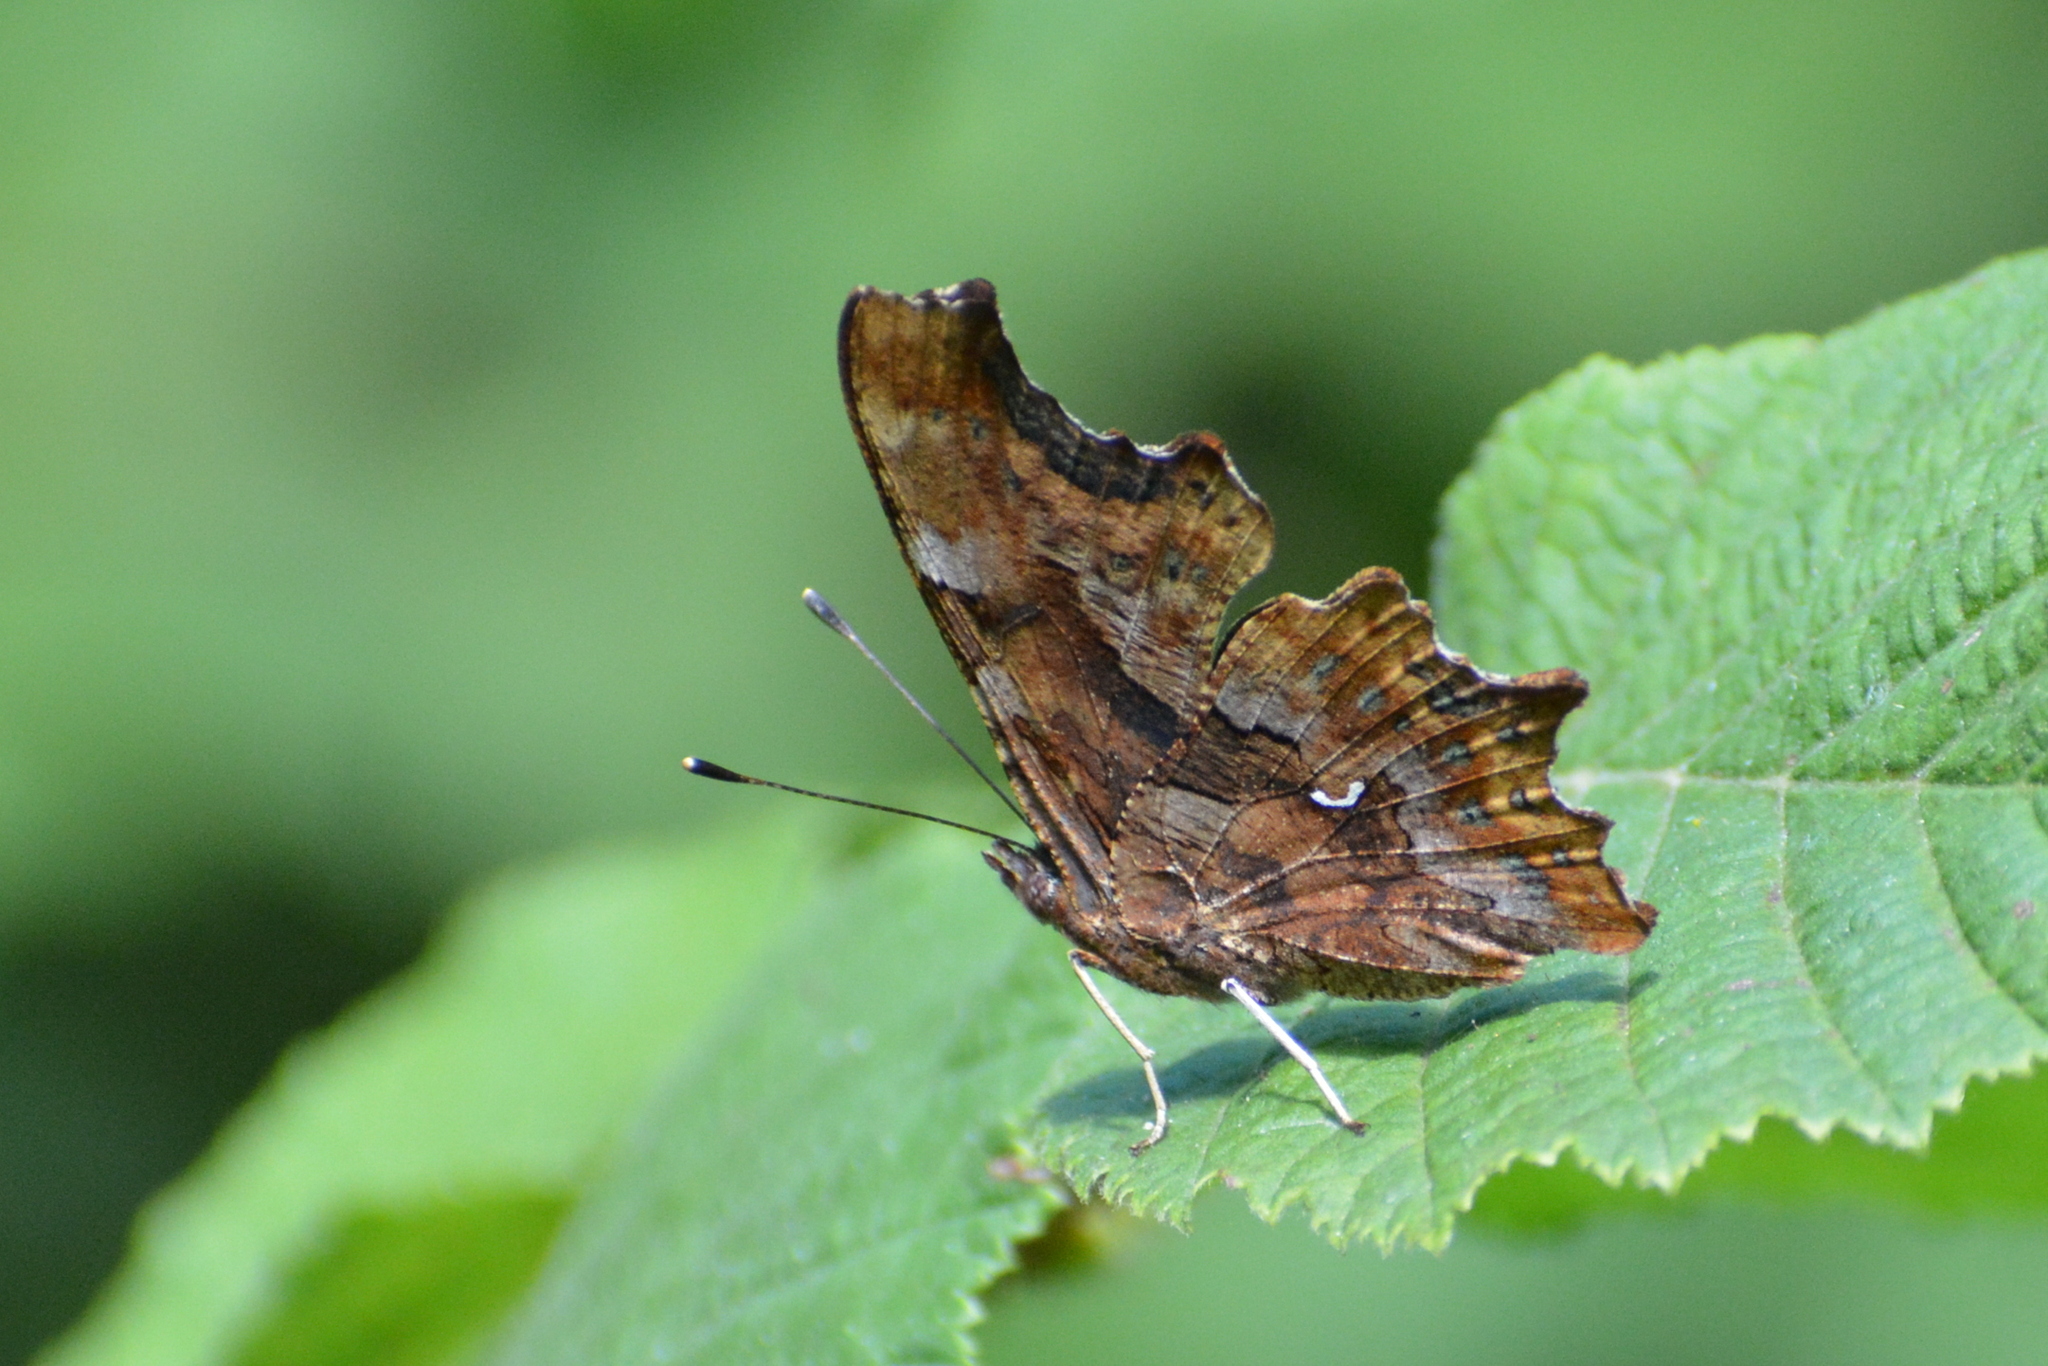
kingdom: Animalia
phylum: Arthropoda
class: Insecta
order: Lepidoptera
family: Nymphalidae
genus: Polygonia
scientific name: Polygonia c-album
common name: Comma
